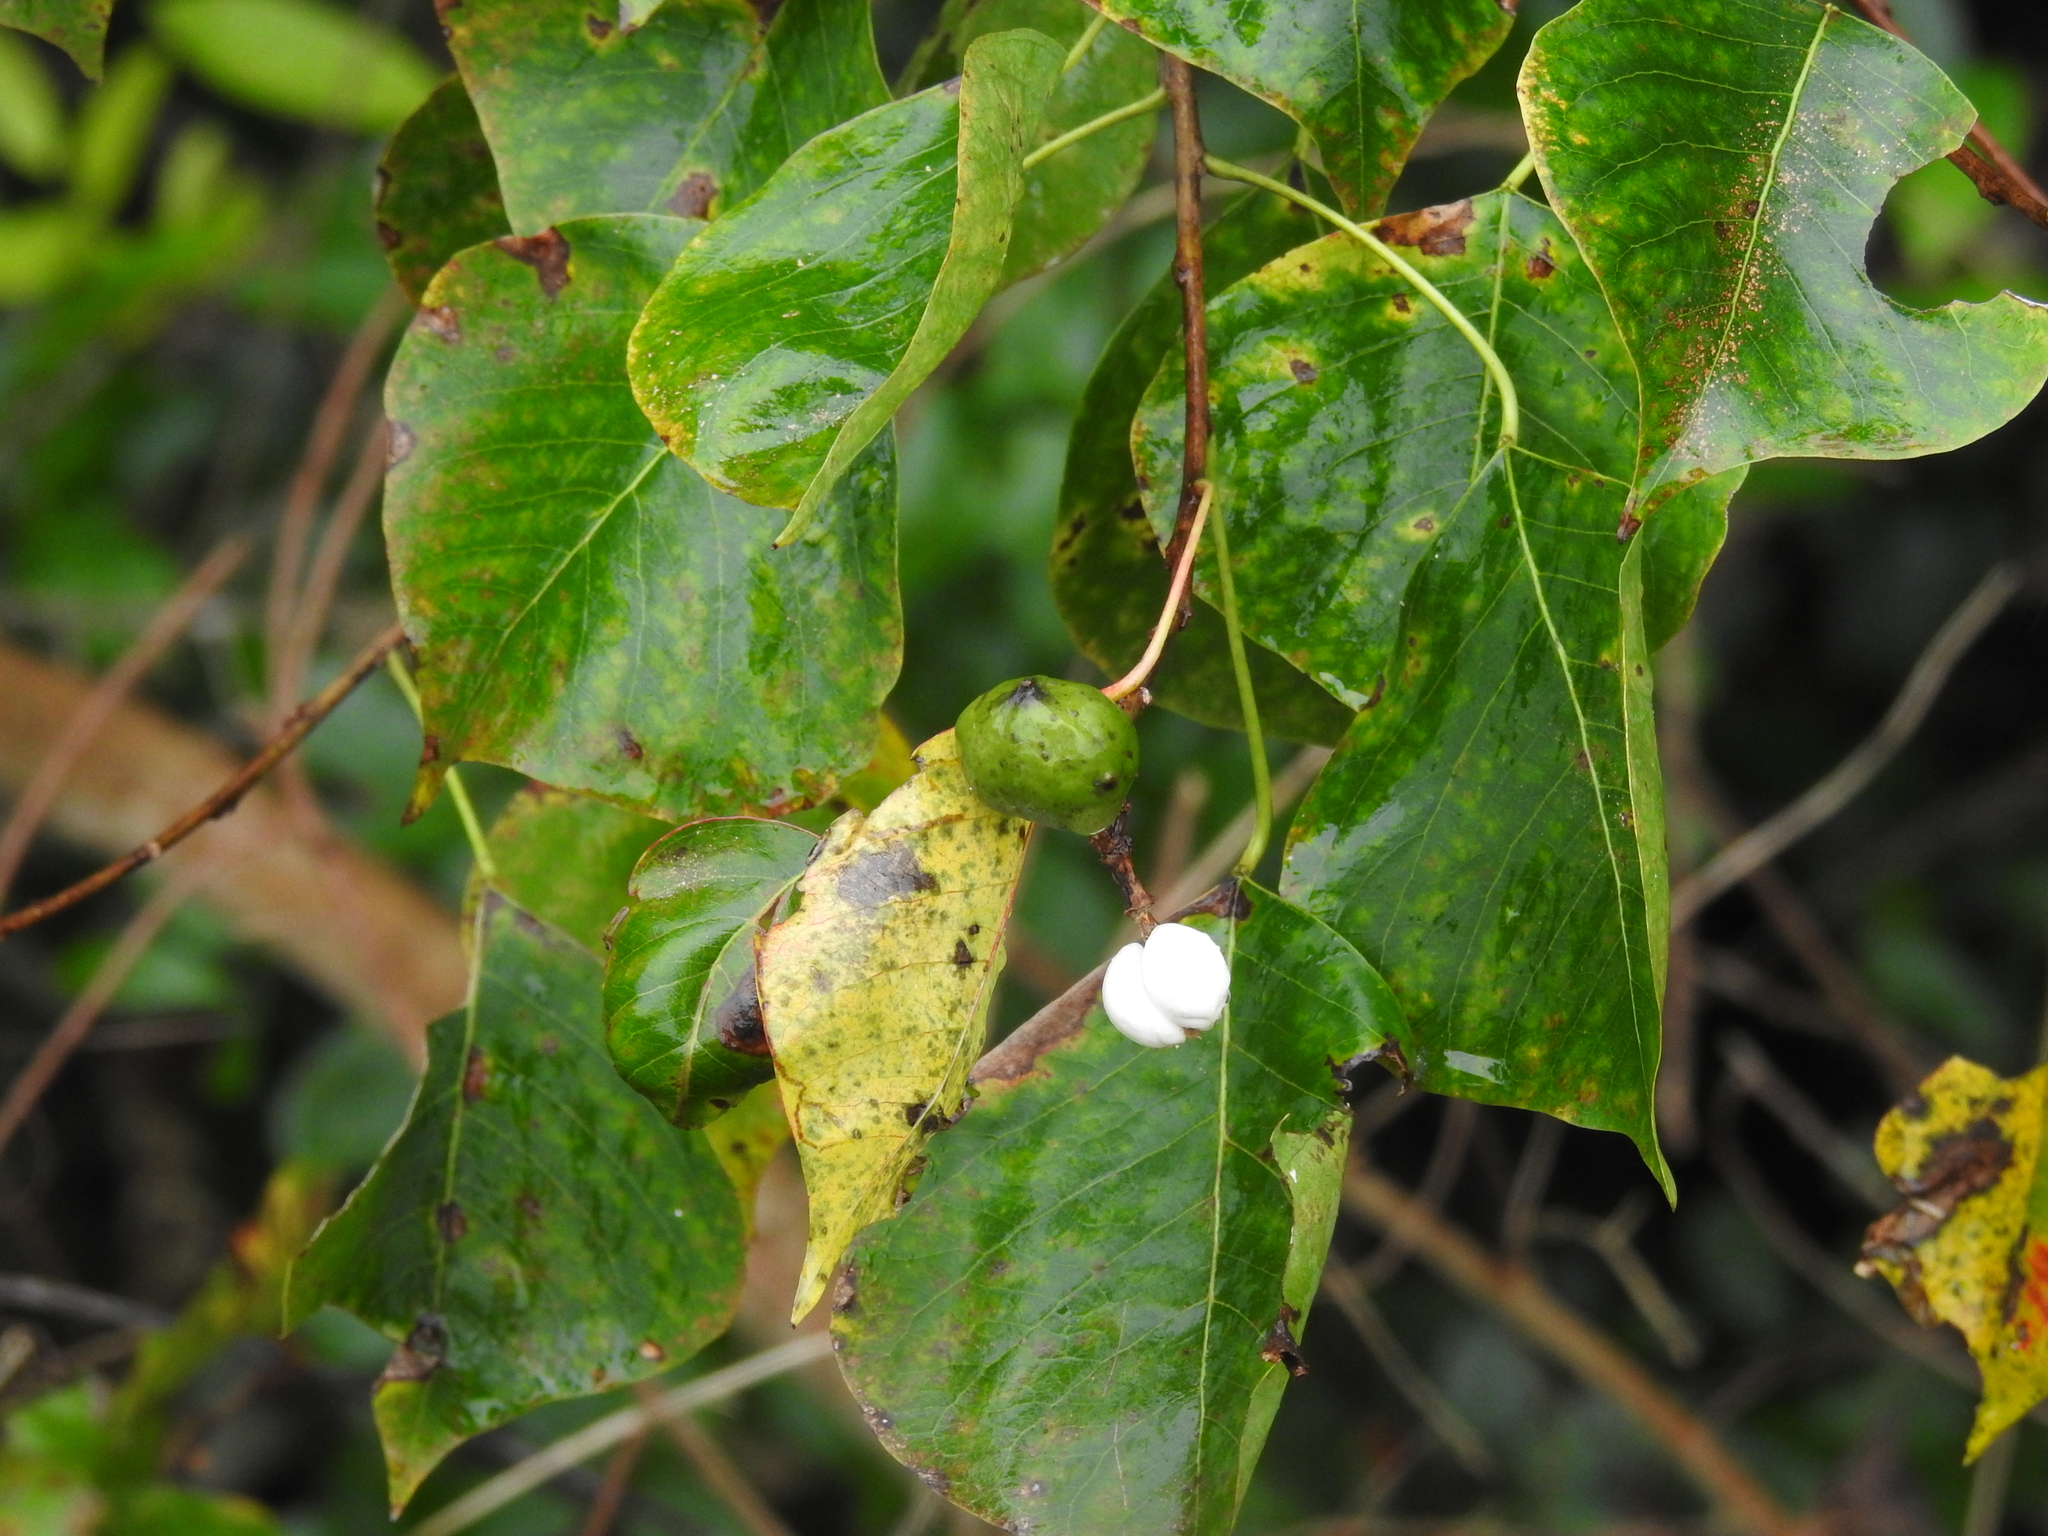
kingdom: Plantae
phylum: Tracheophyta
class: Magnoliopsida
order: Malpighiales
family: Euphorbiaceae
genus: Triadica
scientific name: Triadica sebifera
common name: Chinese tallow
